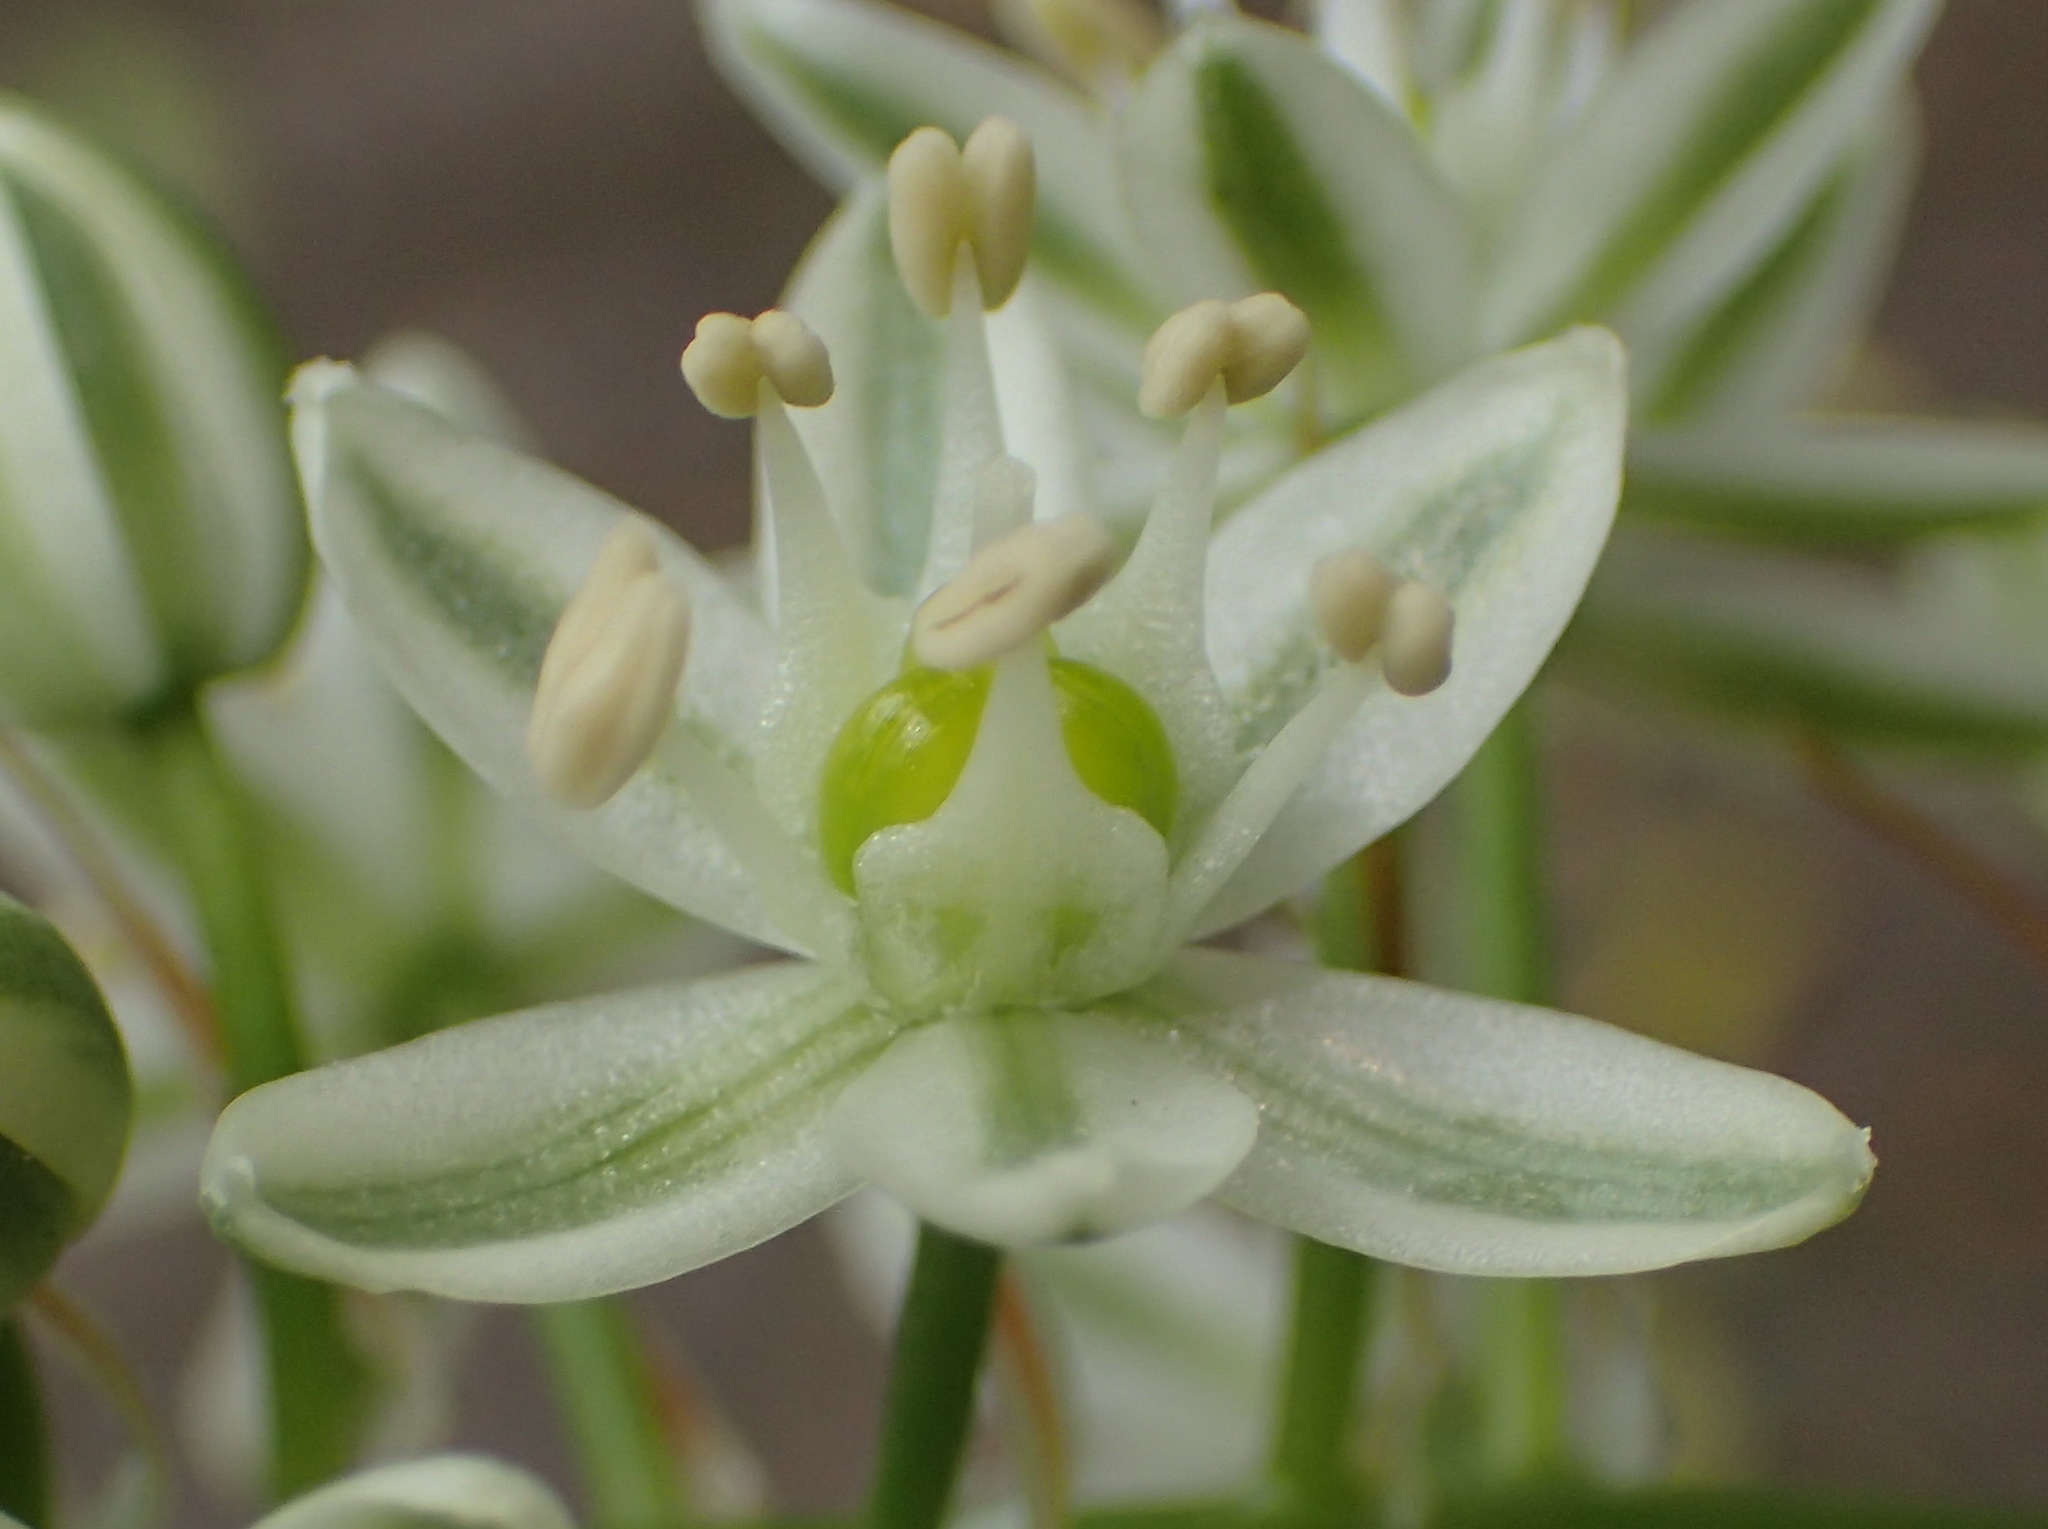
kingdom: Plantae
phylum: Tracheophyta
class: Liliopsida
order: Asparagales
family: Asparagaceae
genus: Albuca
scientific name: Albuca bracteata
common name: Sea-onion
